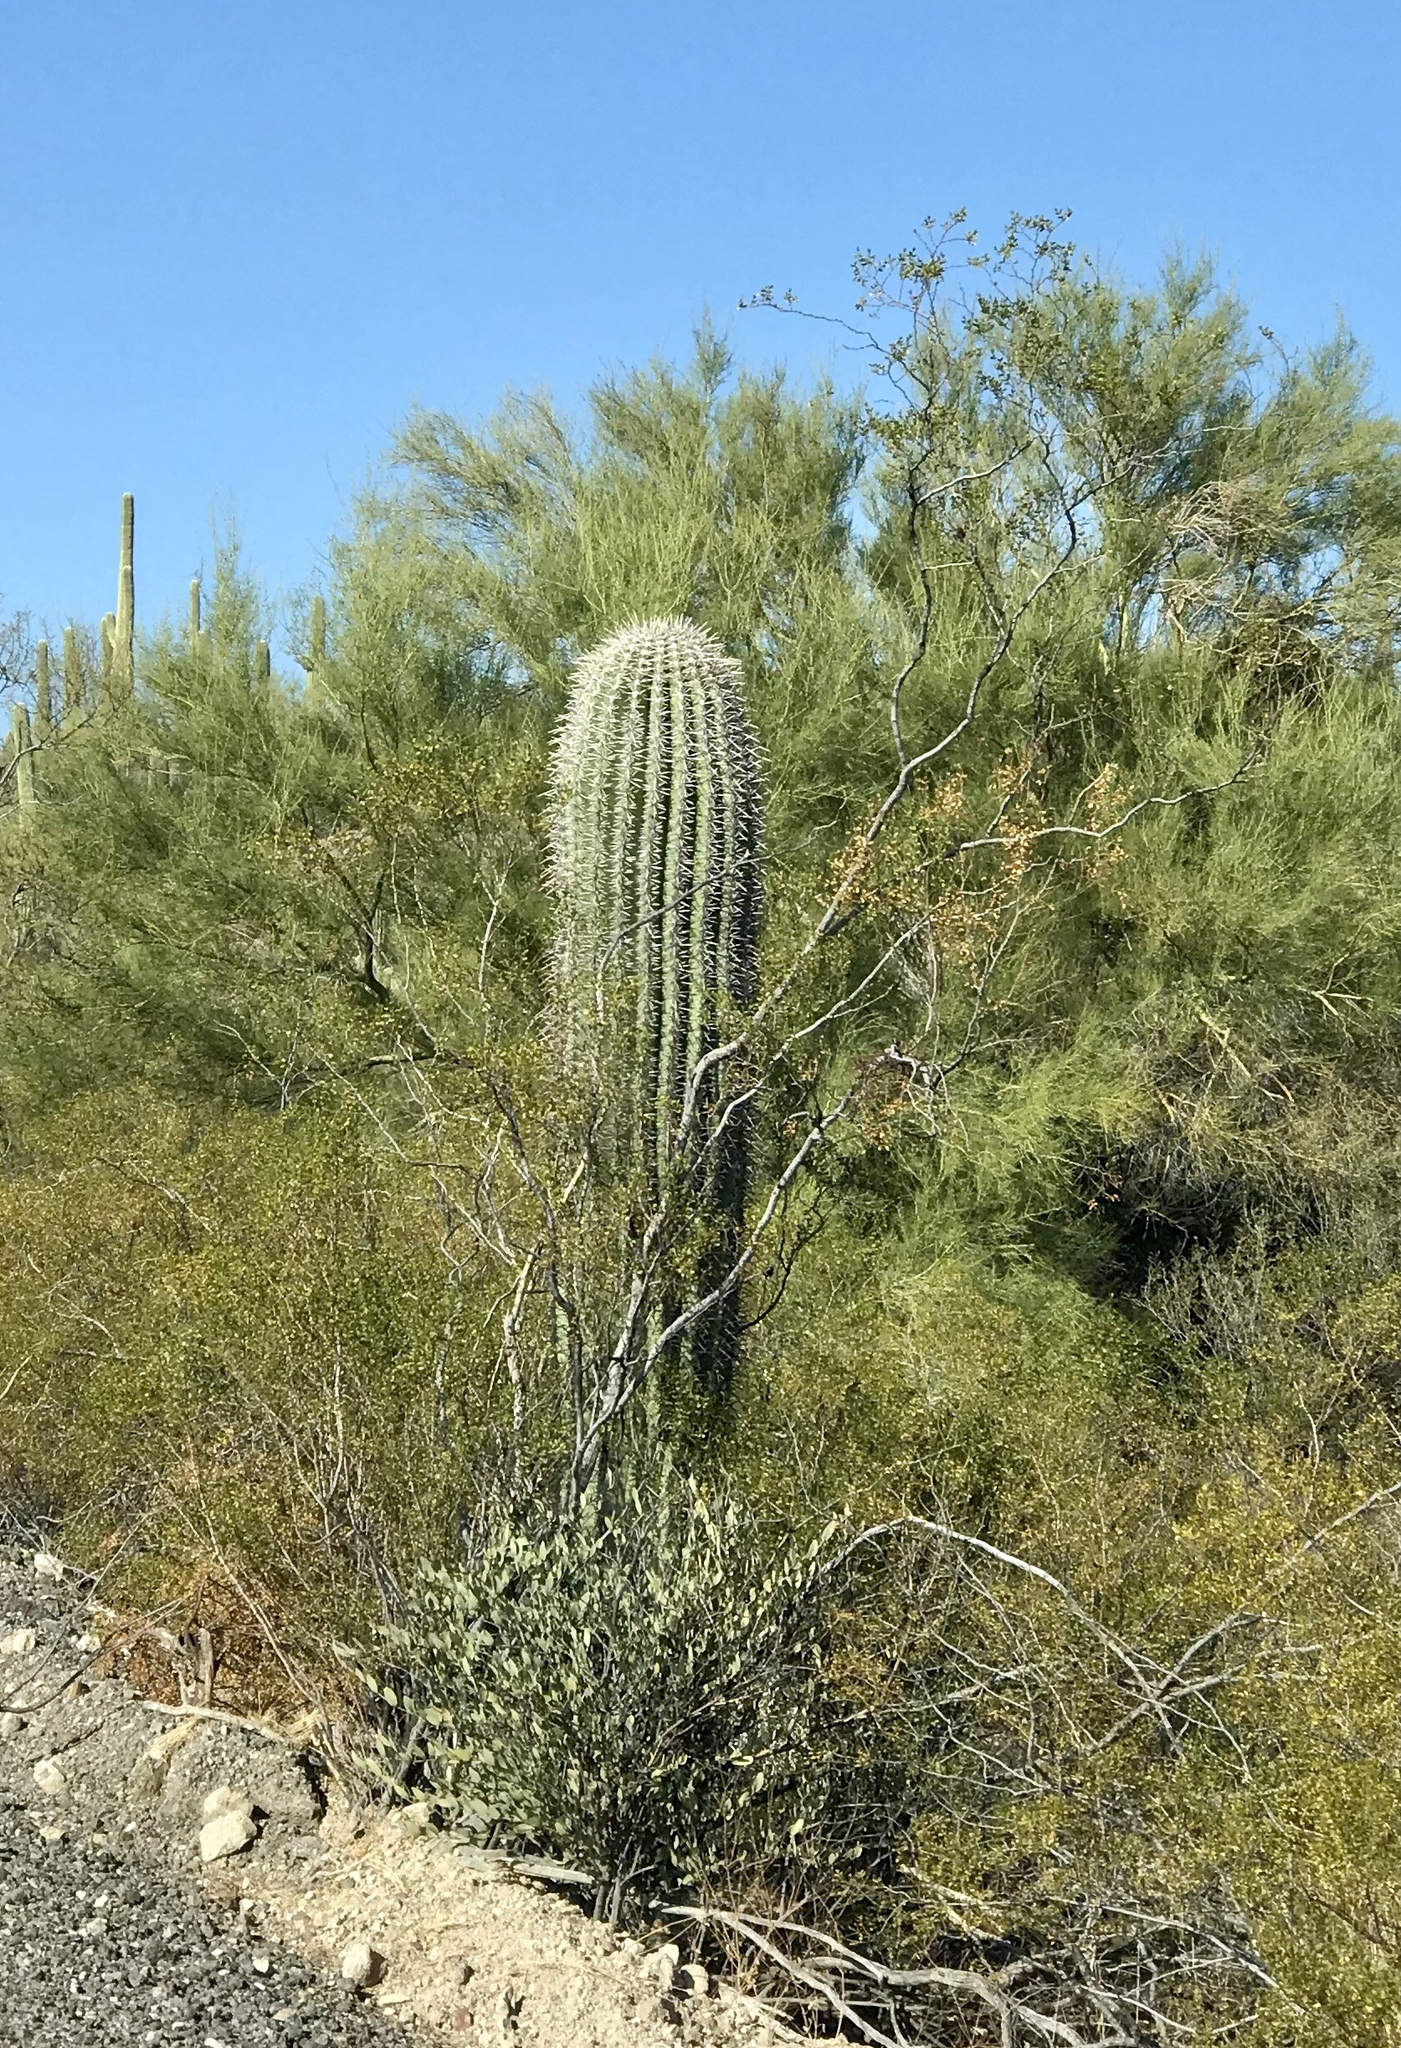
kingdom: Plantae
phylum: Tracheophyta
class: Magnoliopsida
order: Caryophyllales
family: Cactaceae
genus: Carnegiea
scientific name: Carnegiea gigantea
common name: Saguaro
